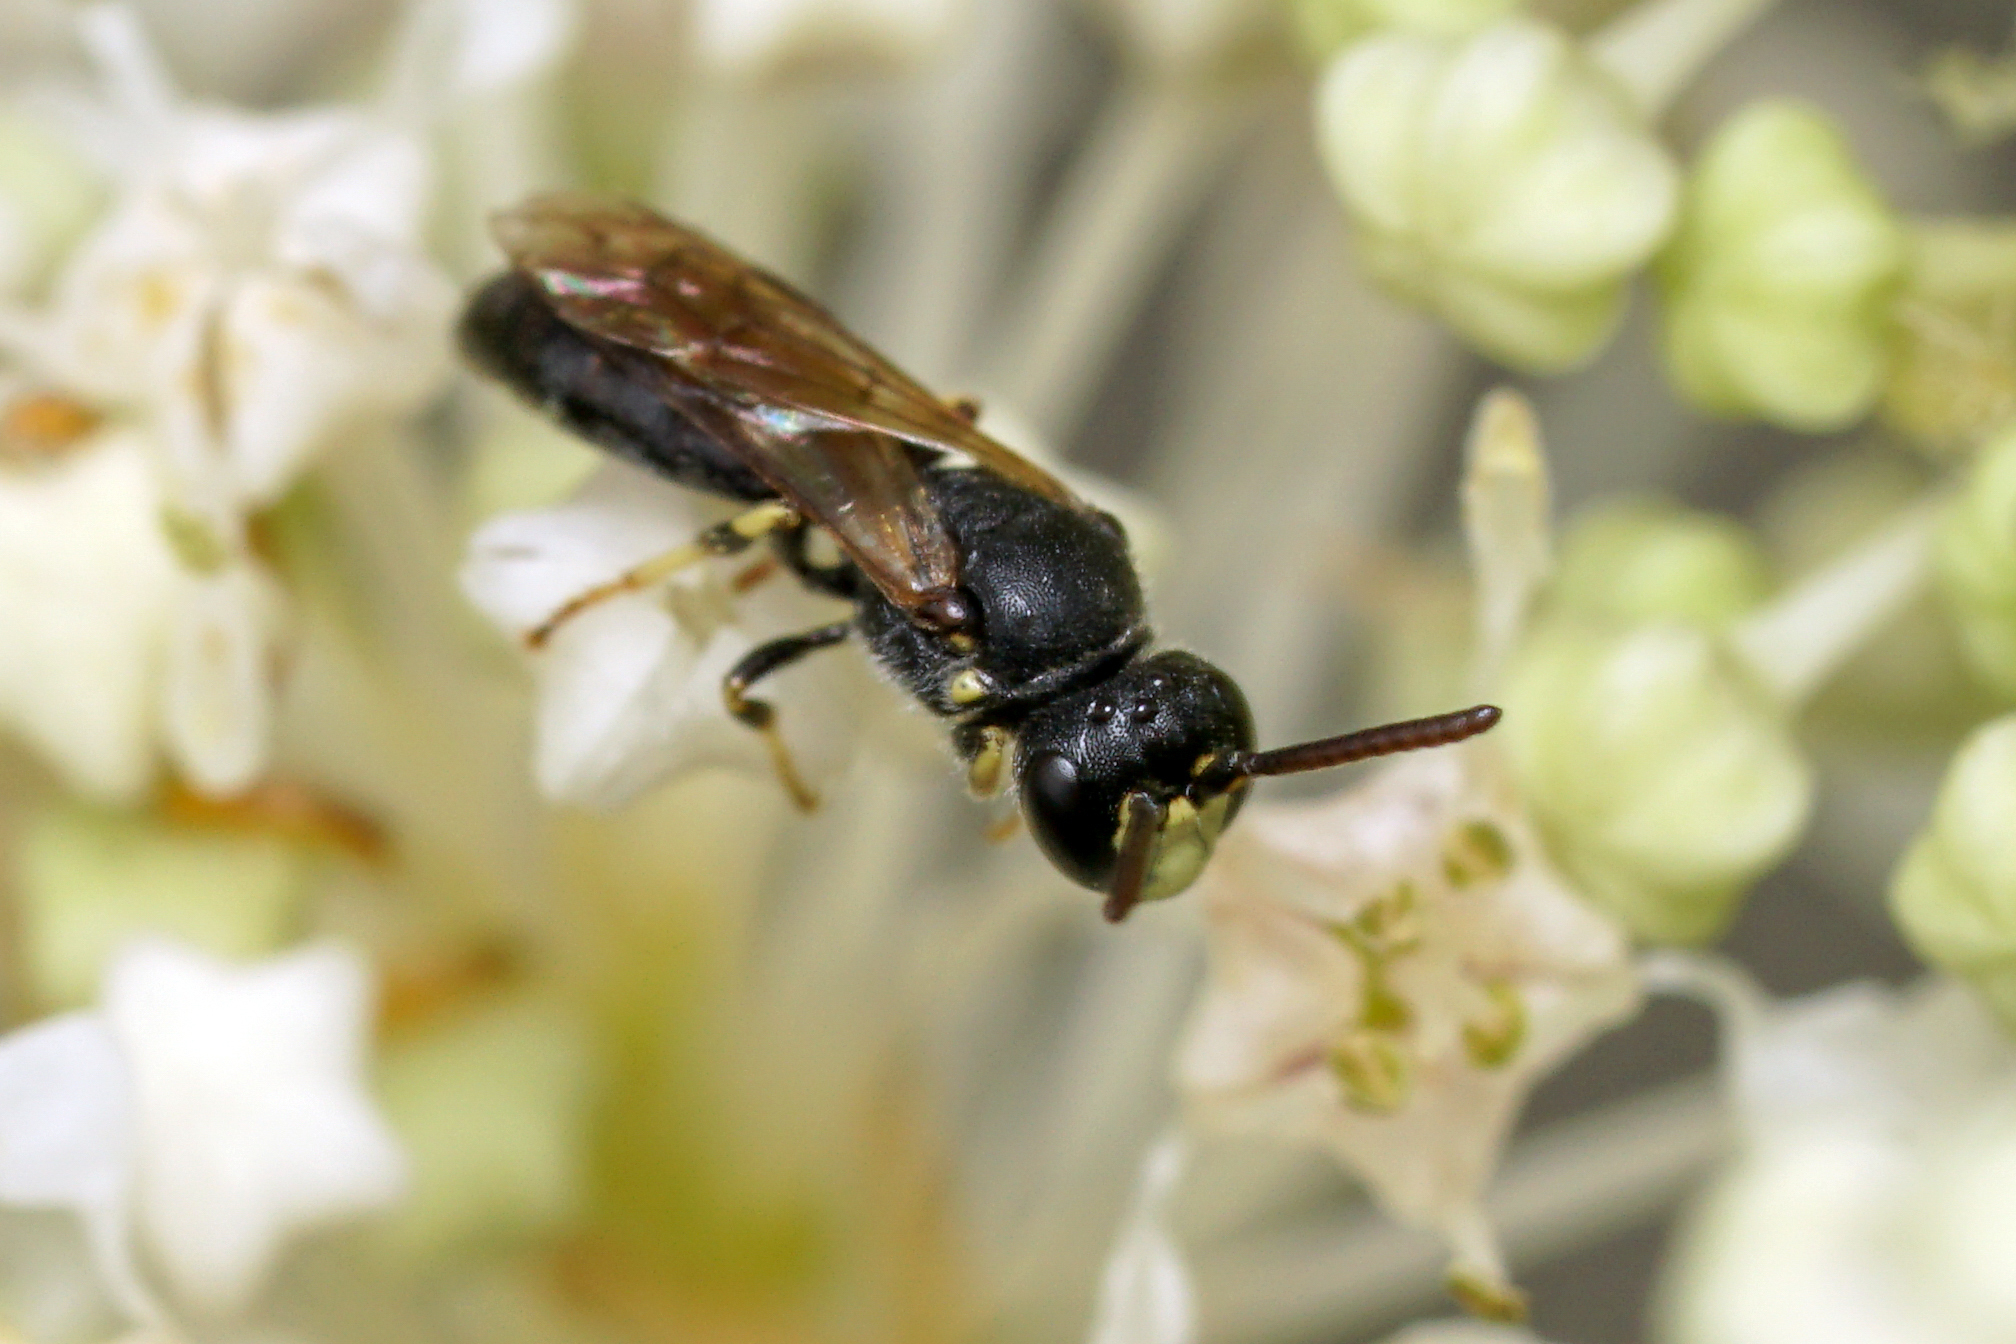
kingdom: Animalia
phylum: Arthropoda
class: Insecta
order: Hymenoptera
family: Colletidae
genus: Hylaeus
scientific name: Hylaeus mesillae
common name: Mesilla masked bee
